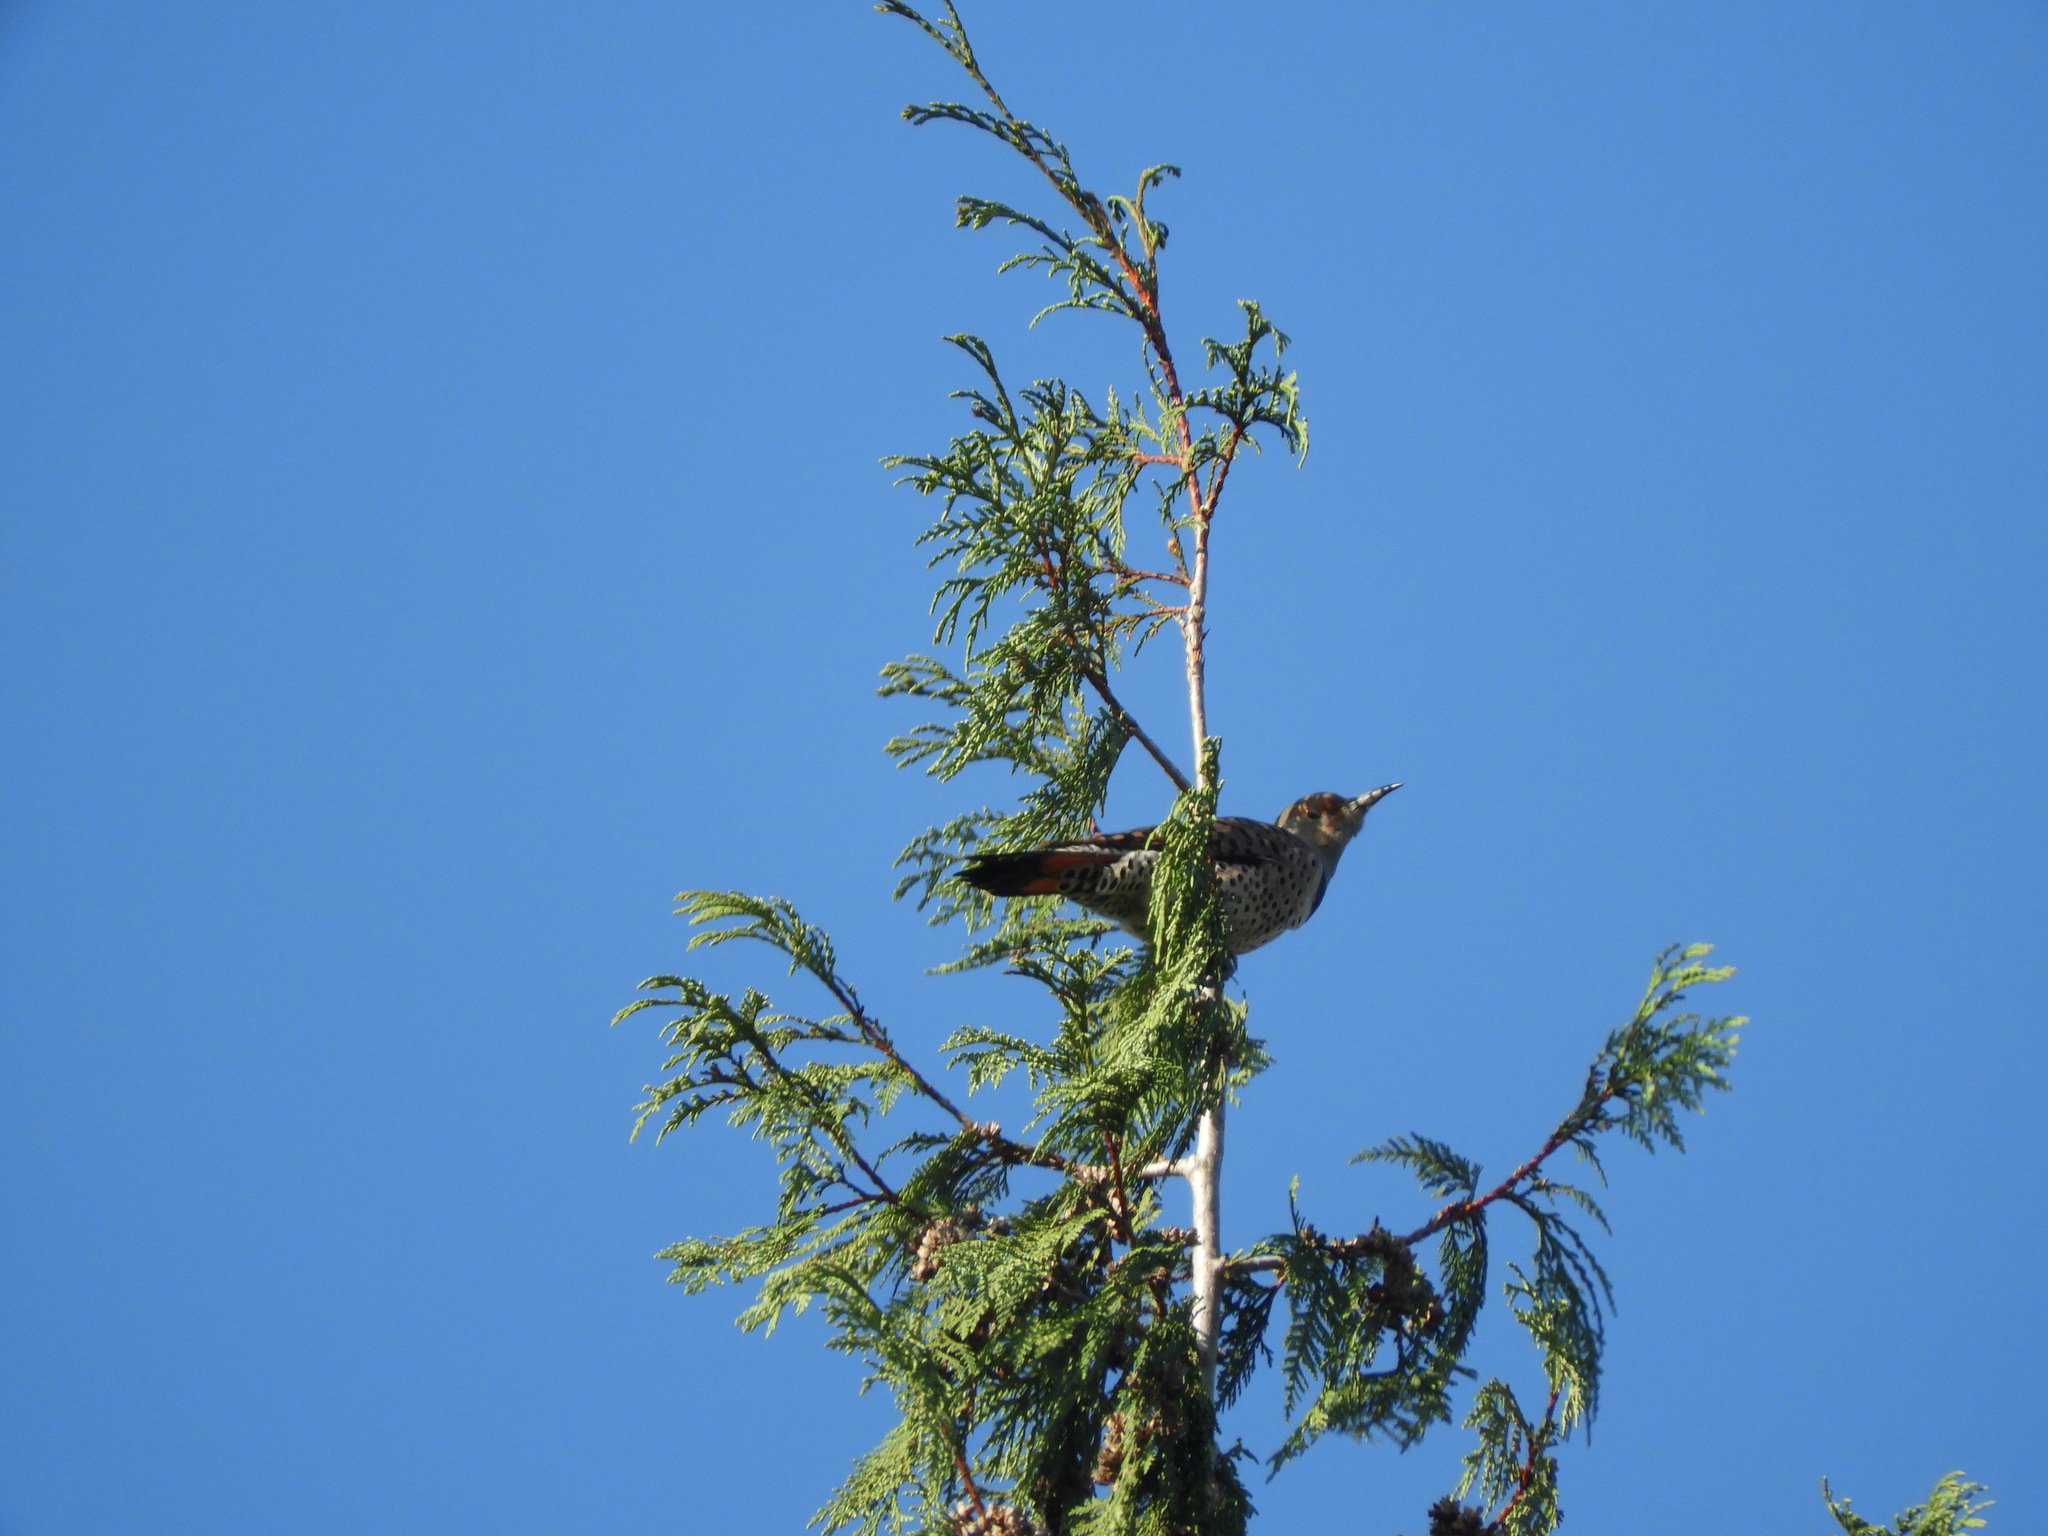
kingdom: Animalia
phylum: Chordata
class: Aves
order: Piciformes
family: Picidae
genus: Colaptes
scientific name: Colaptes auratus
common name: Northern flicker
